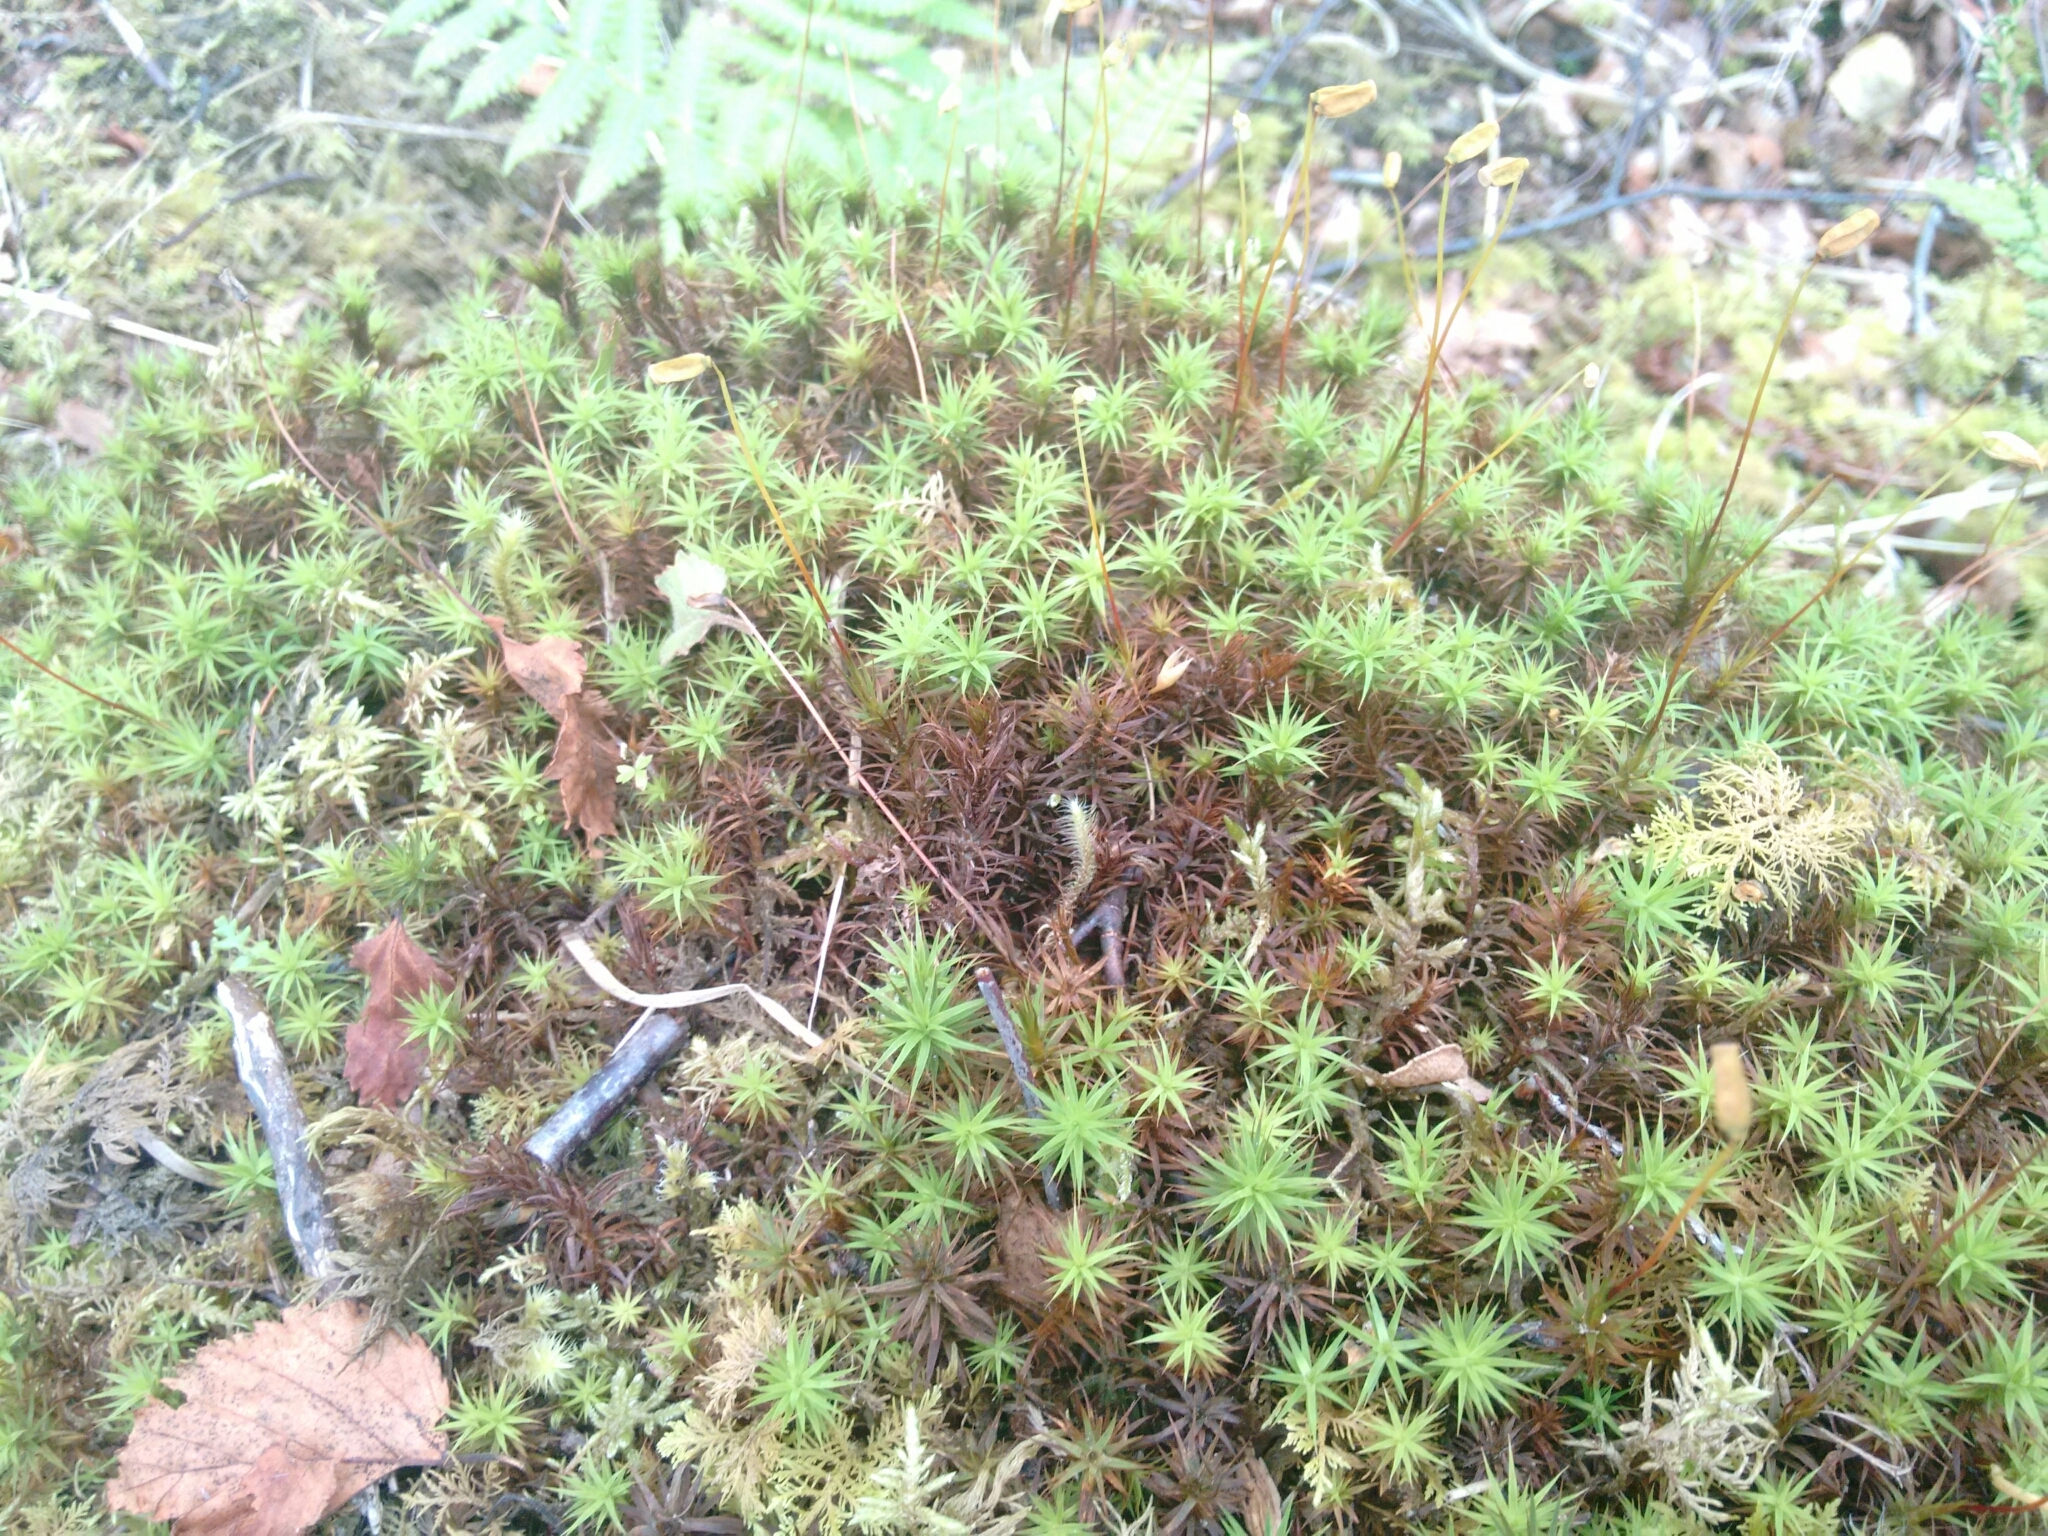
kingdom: Plantae
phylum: Bryophyta
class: Polytrichopsida
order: Polytrichales
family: Polytrichaceae
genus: Polytrichum
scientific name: Polytrichum commune
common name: Common haircap
